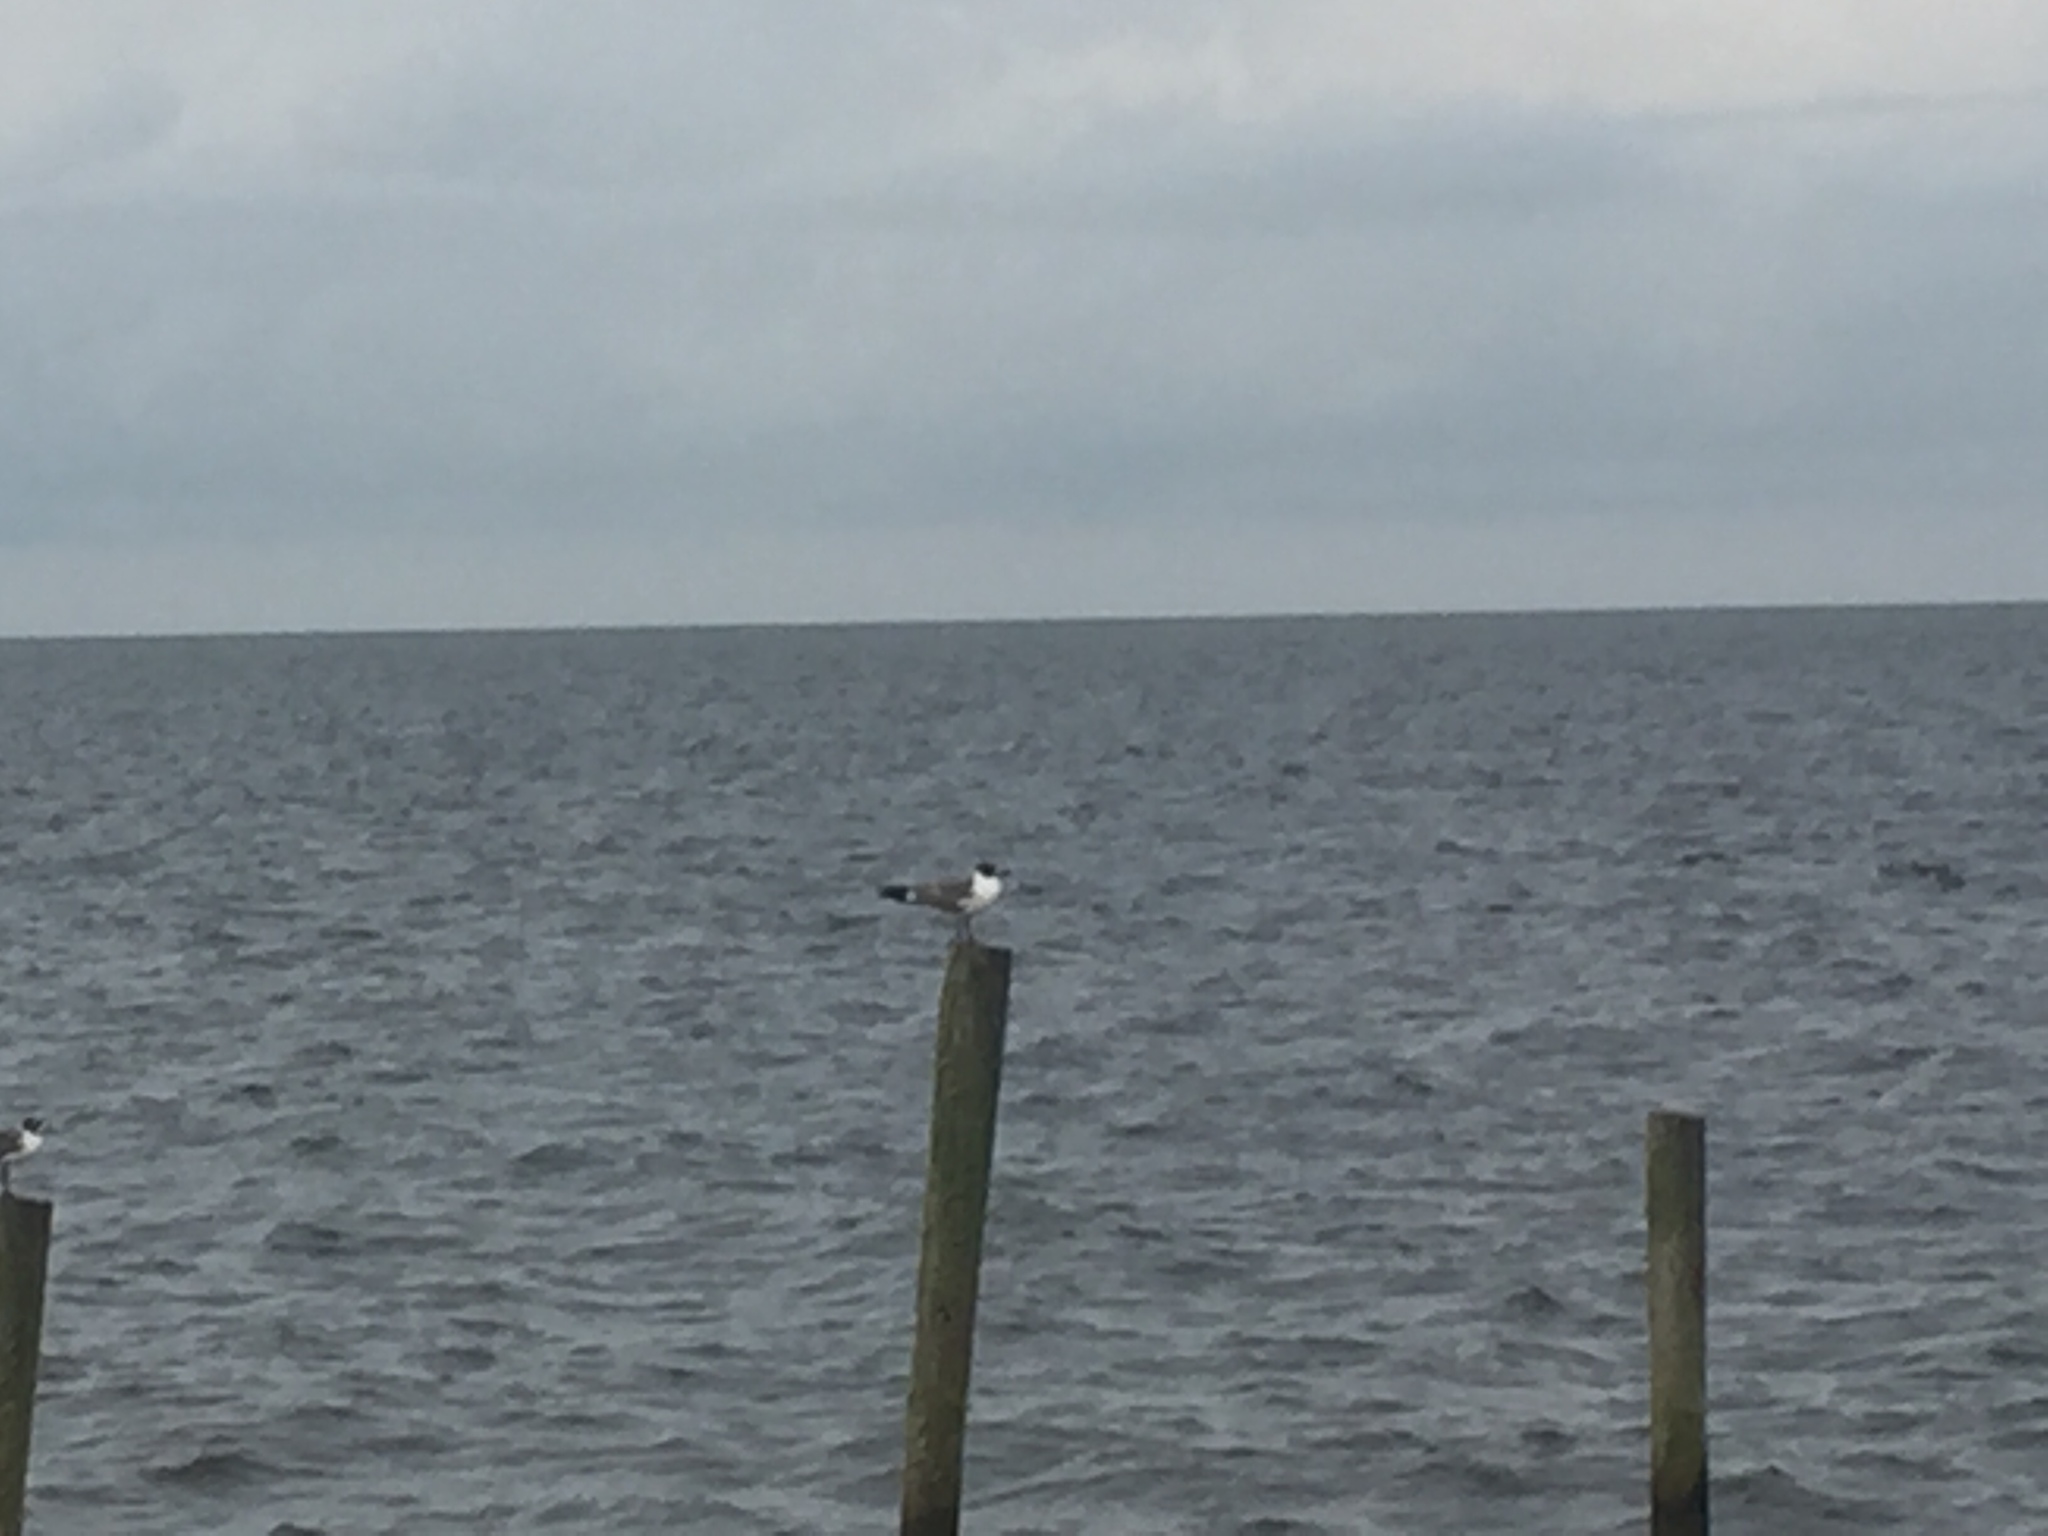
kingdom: Animalia
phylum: Chordata
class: Aves
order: Charadriiformes
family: Laridae
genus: Leucophaeus
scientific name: Leucophaeus atricilla
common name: Laughing gull
